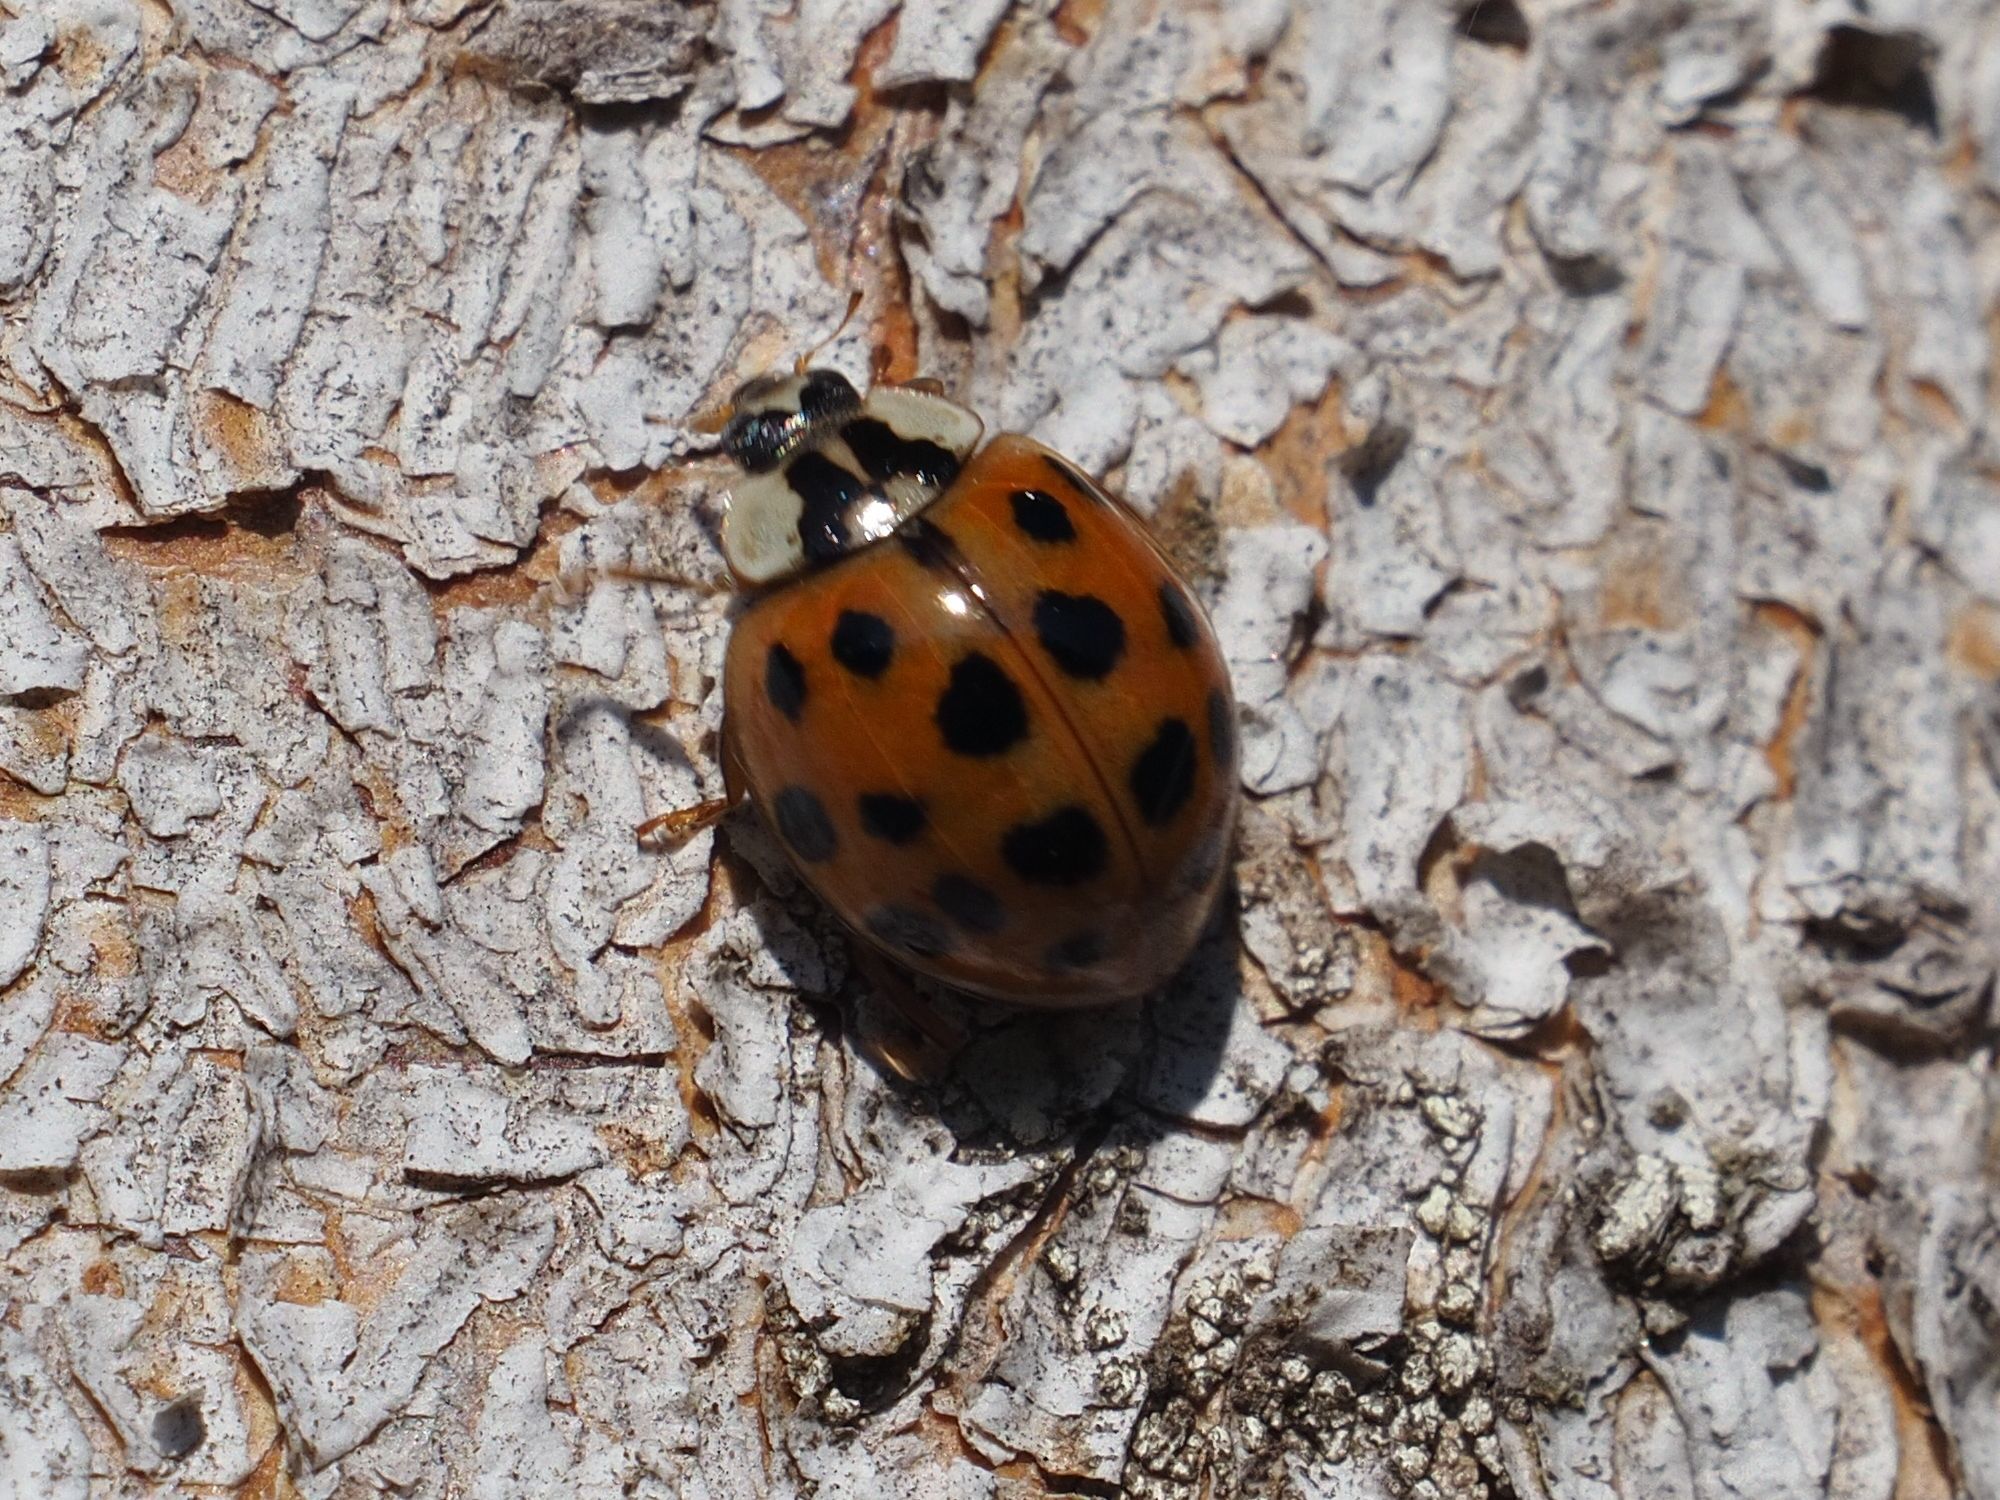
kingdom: Animalia
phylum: Arthropoda
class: Insecta
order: Coleoptera
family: Coccinellidae
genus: Harmonia
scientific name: Harmonia axyridis
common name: Harlequin ladybird
